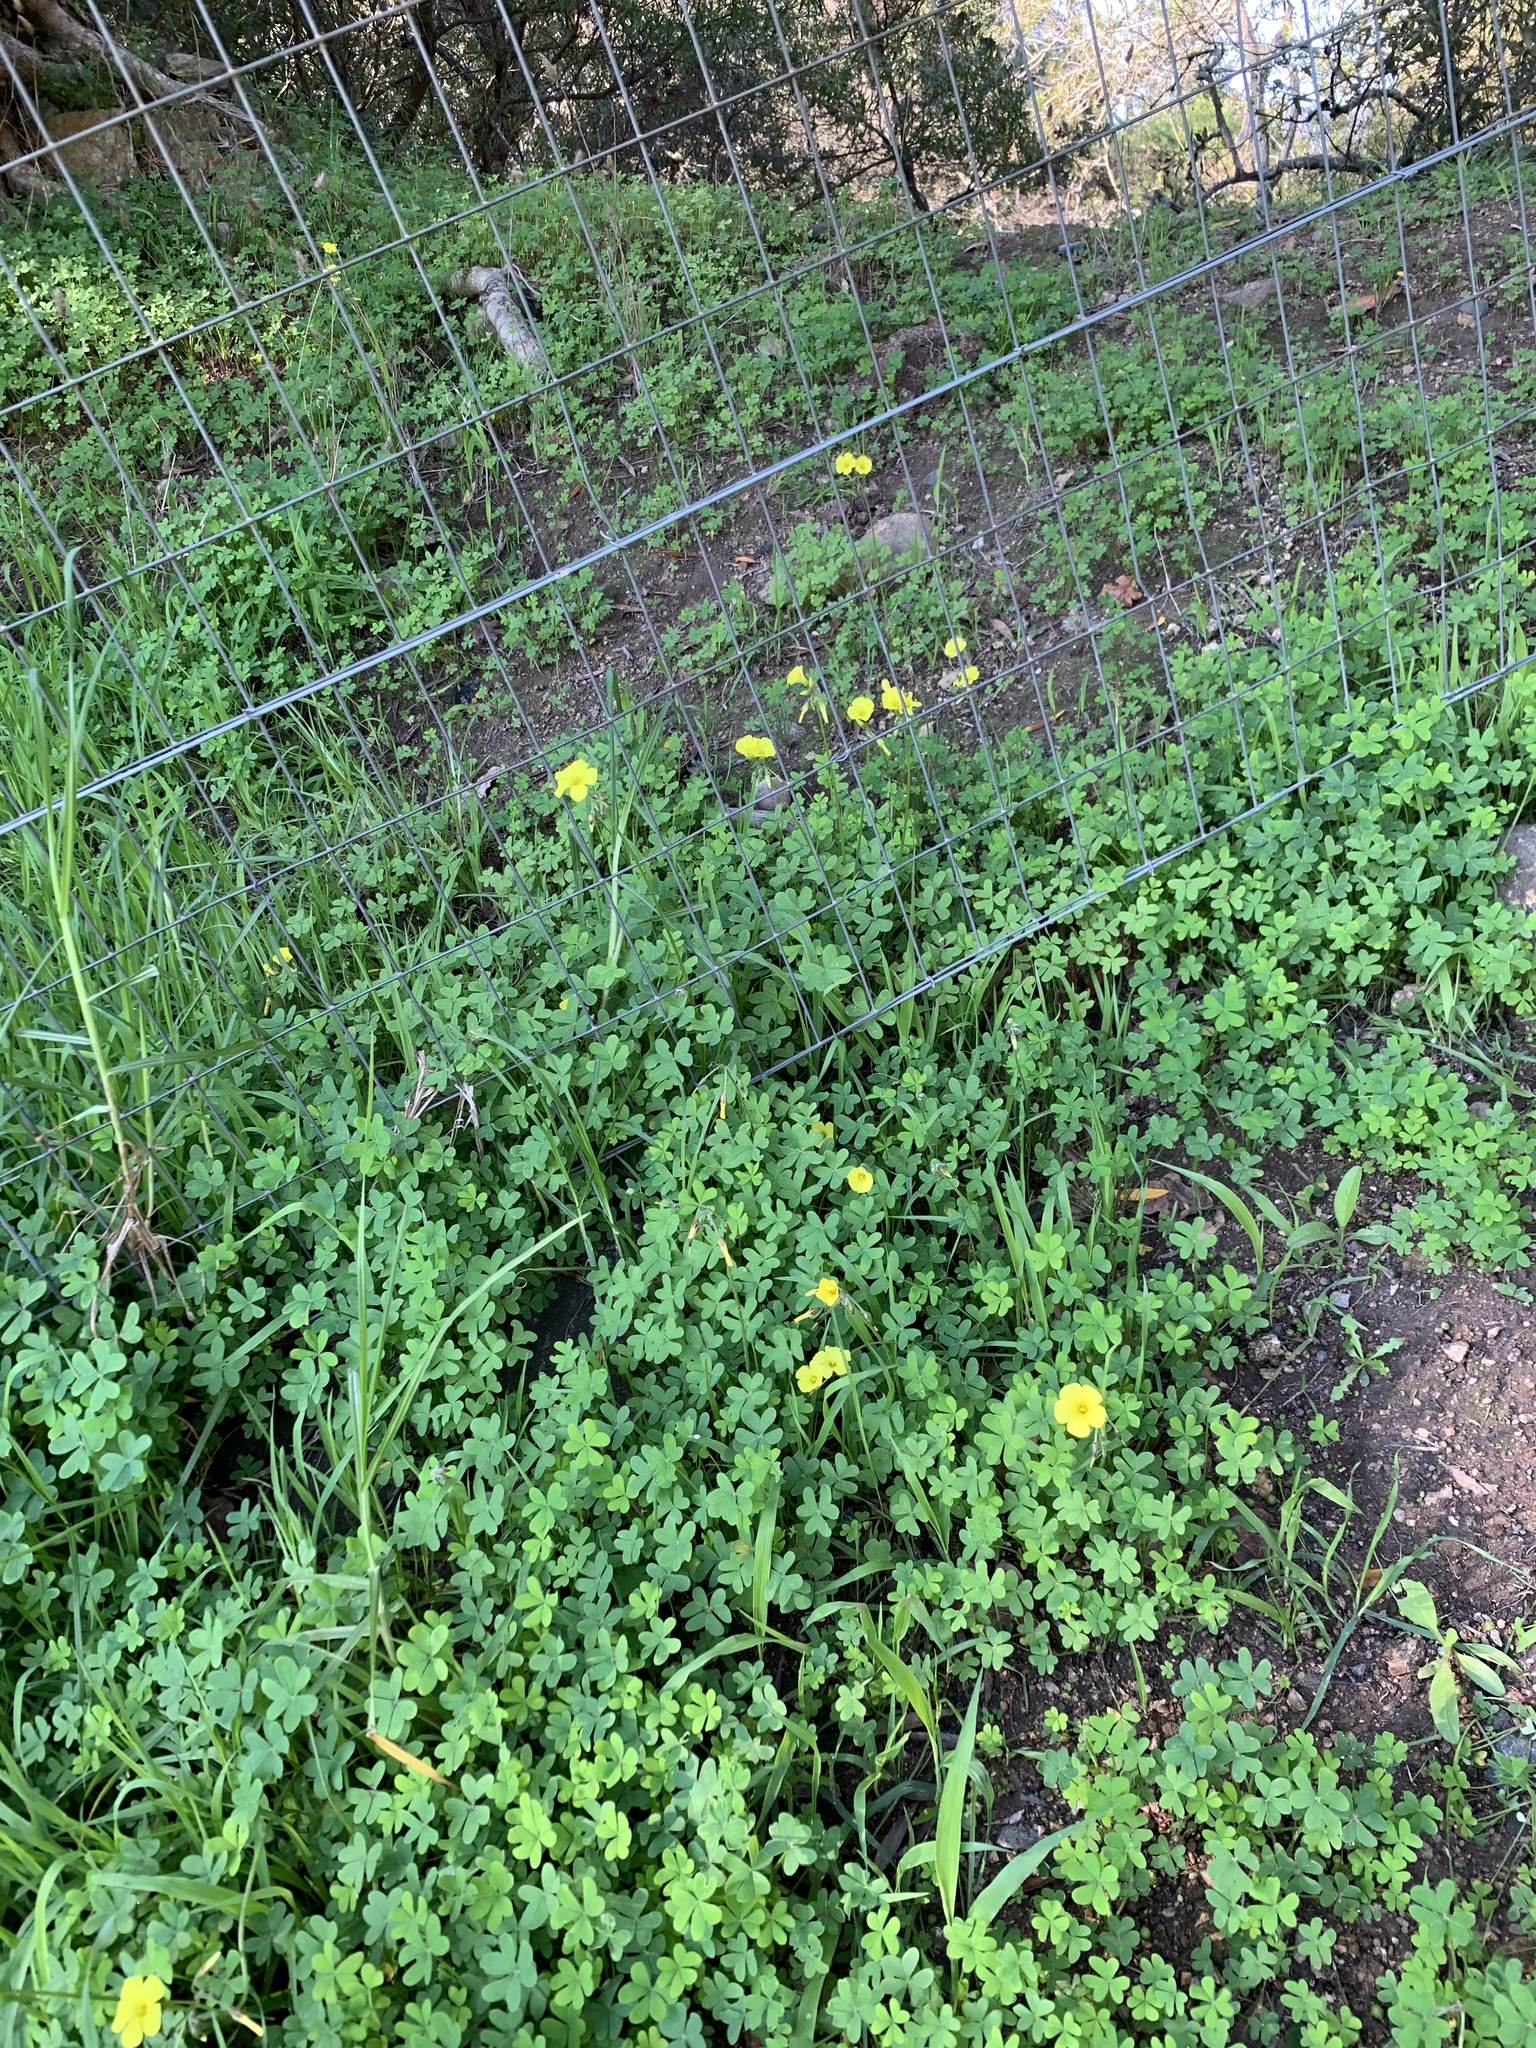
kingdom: Plantae
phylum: Tracheophyta
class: Magnoliopsida
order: Oxalidales
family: Oxalidaceae
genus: Oxalis
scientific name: Oxalis pes-caprae
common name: Bermuda-buttercup
